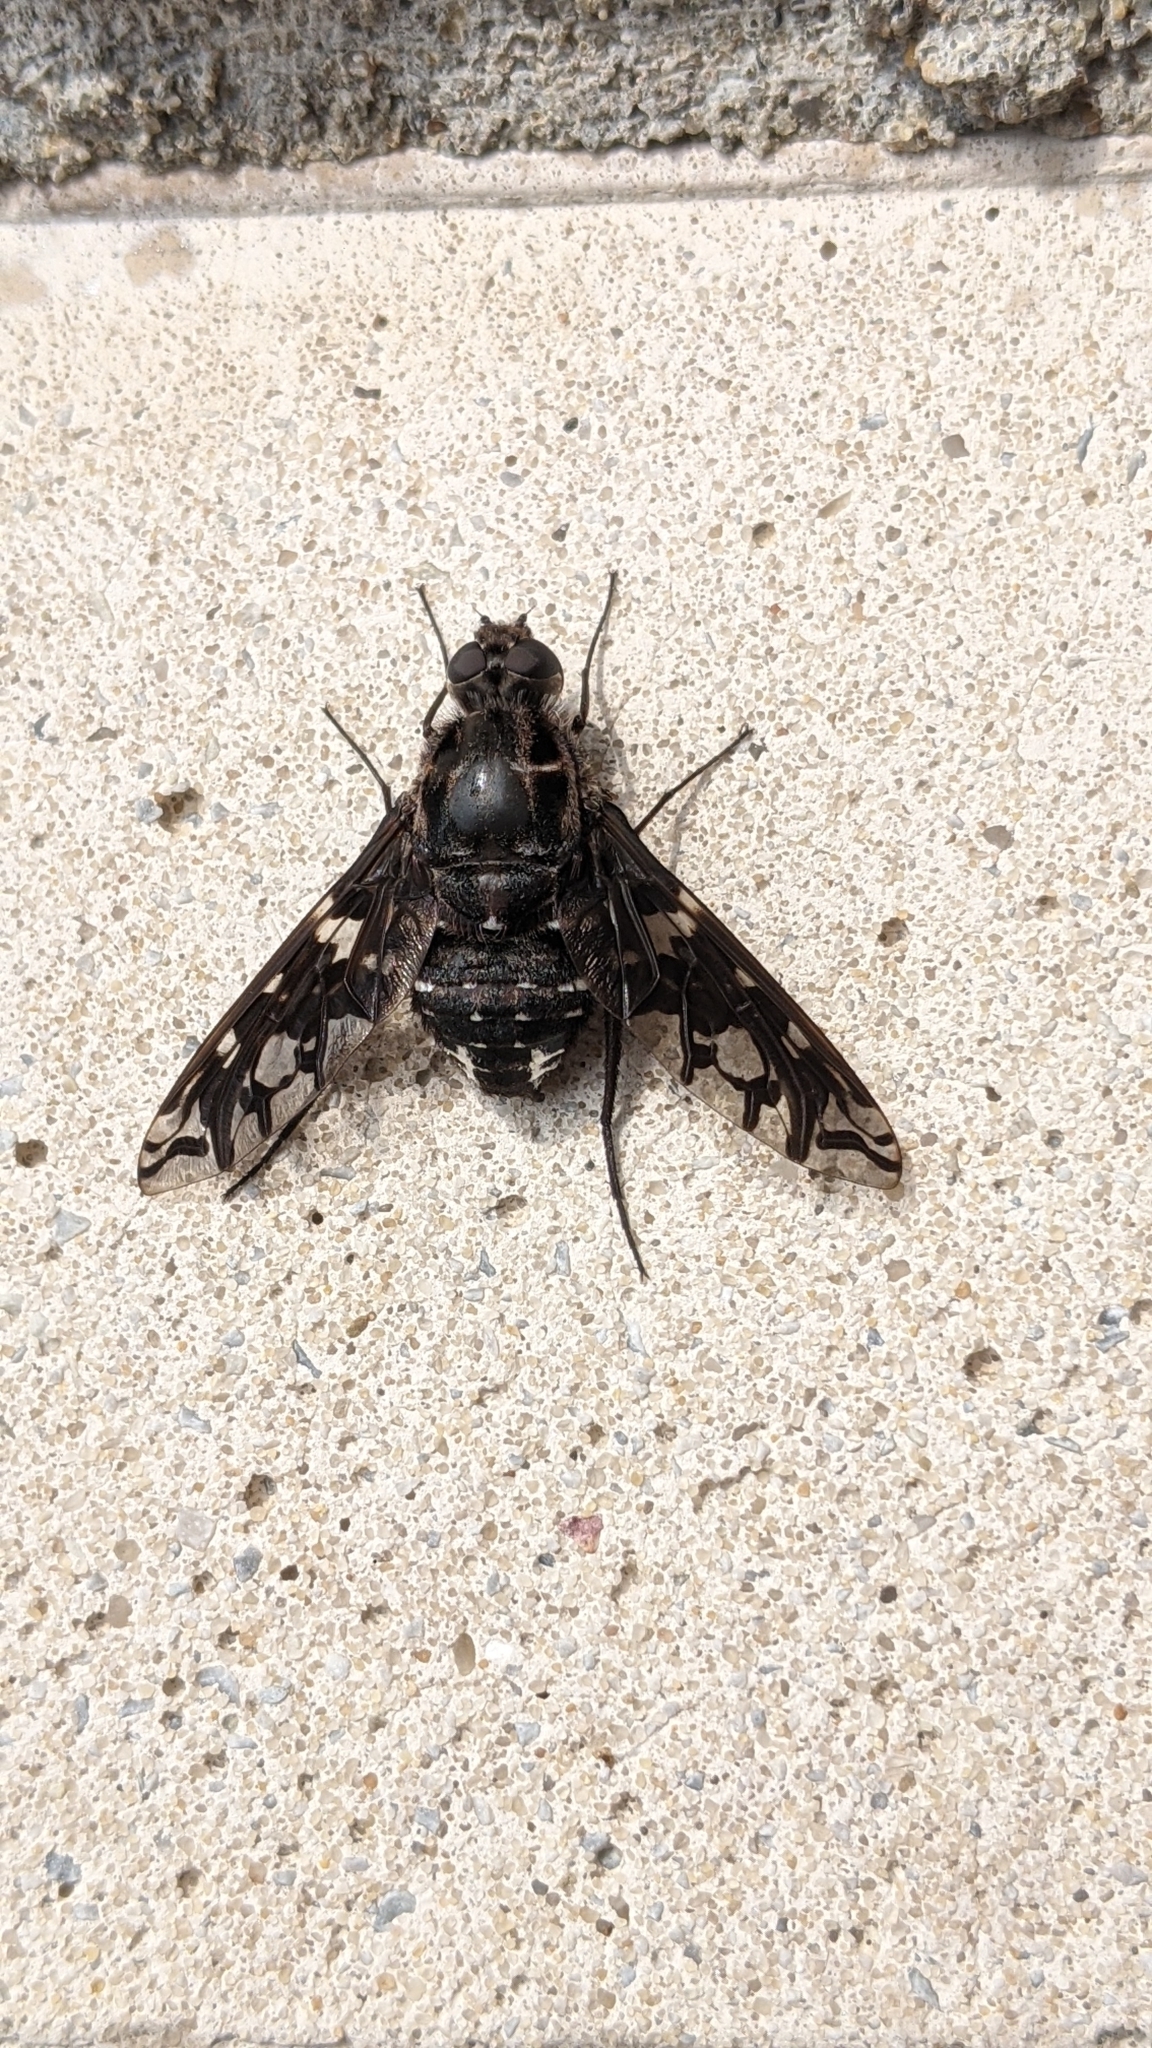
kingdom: Animalia
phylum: Arthropoda
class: Insecta
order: Diptera
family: Bombyliidae
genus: Xenox
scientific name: Xenox tigrinus
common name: Tiger bee fly
